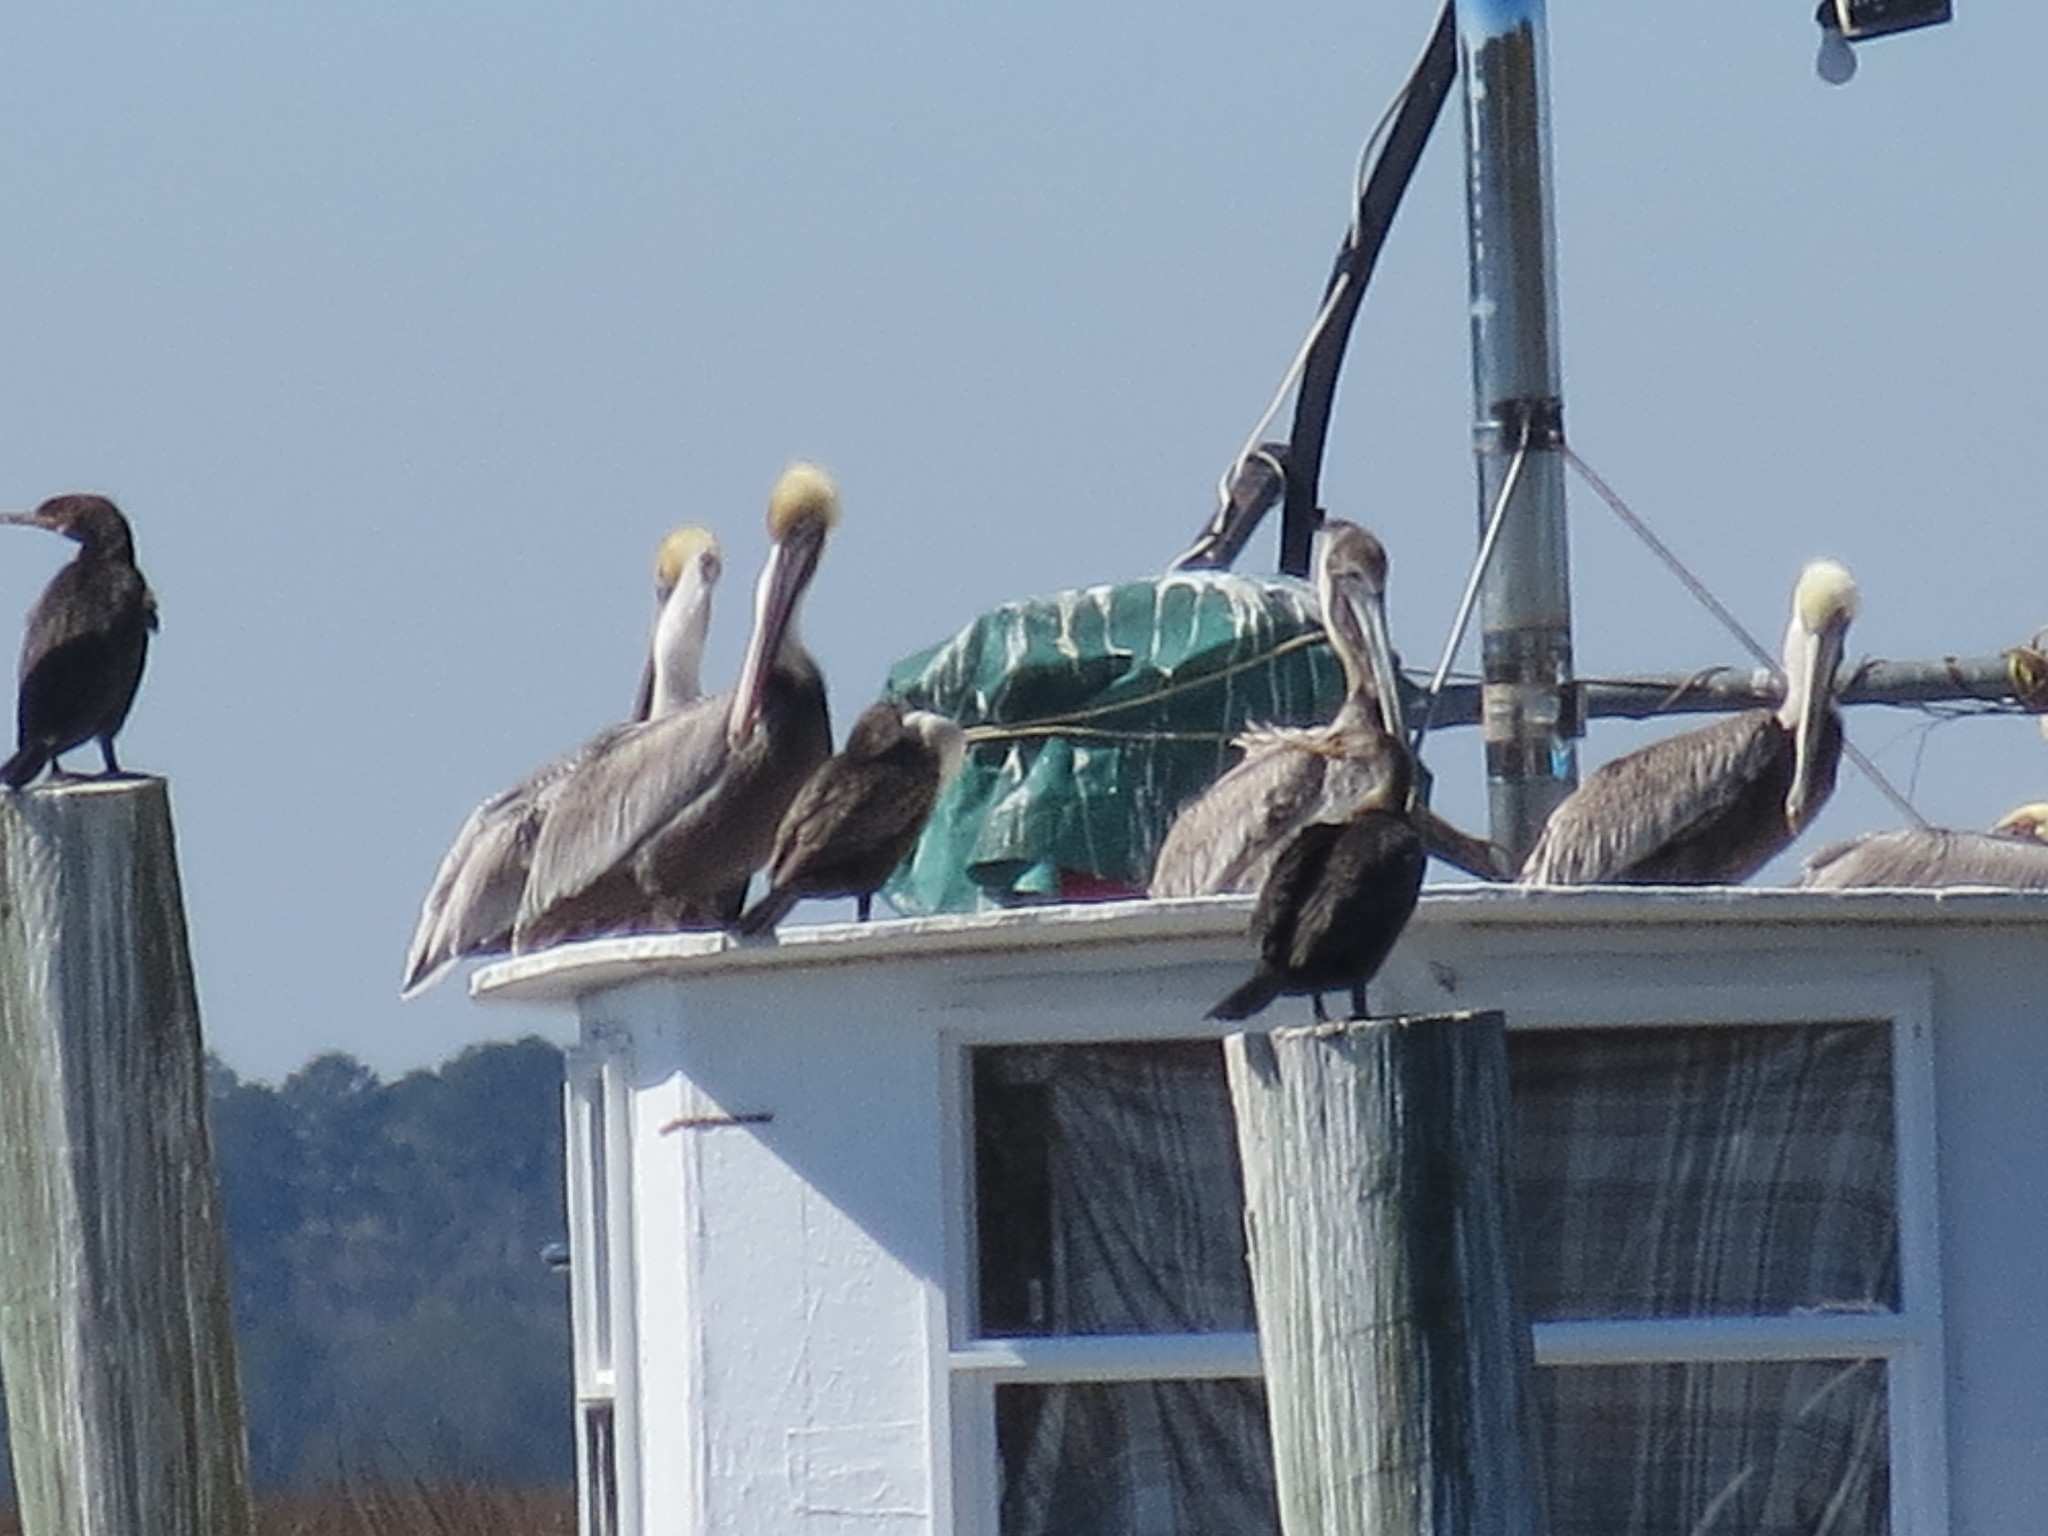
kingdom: Animalia
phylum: Chordata
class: Aves
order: Pelecaniformes
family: Pelecanidae
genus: Pelecanus
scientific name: Pelecanus occidentalis
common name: Brown pelican
